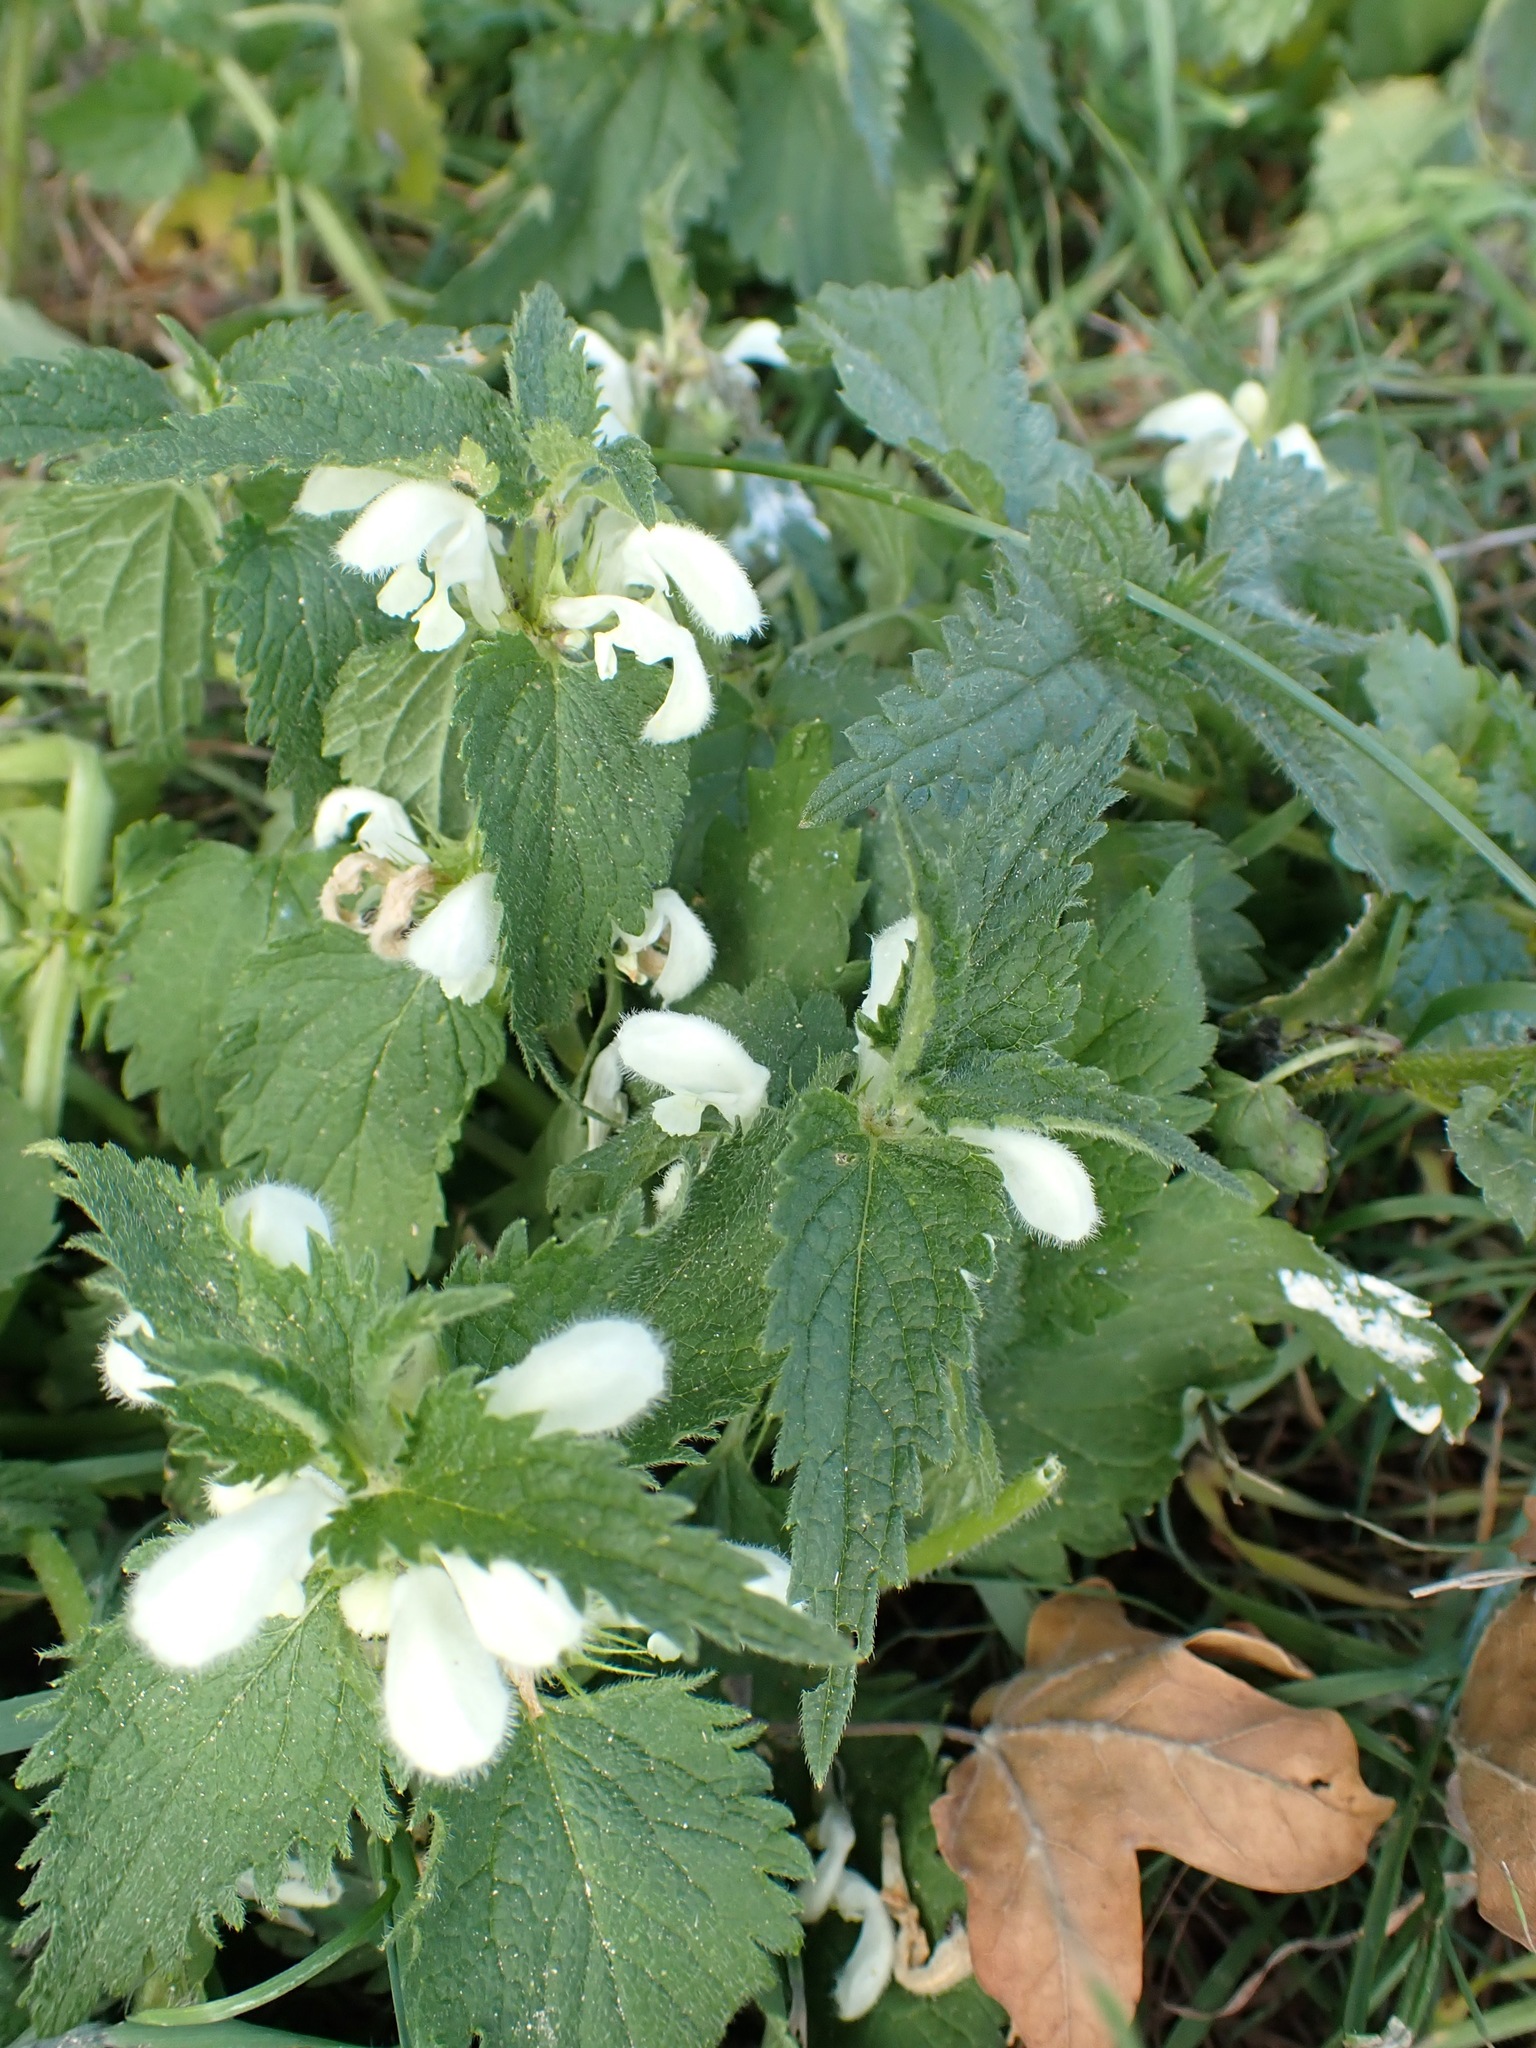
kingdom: Plantae
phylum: Tracheophyta
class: Magnoliopsida
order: Lamiales
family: Lamiaceae
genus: Lamium
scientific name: Lamium album
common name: White dead-nettle
